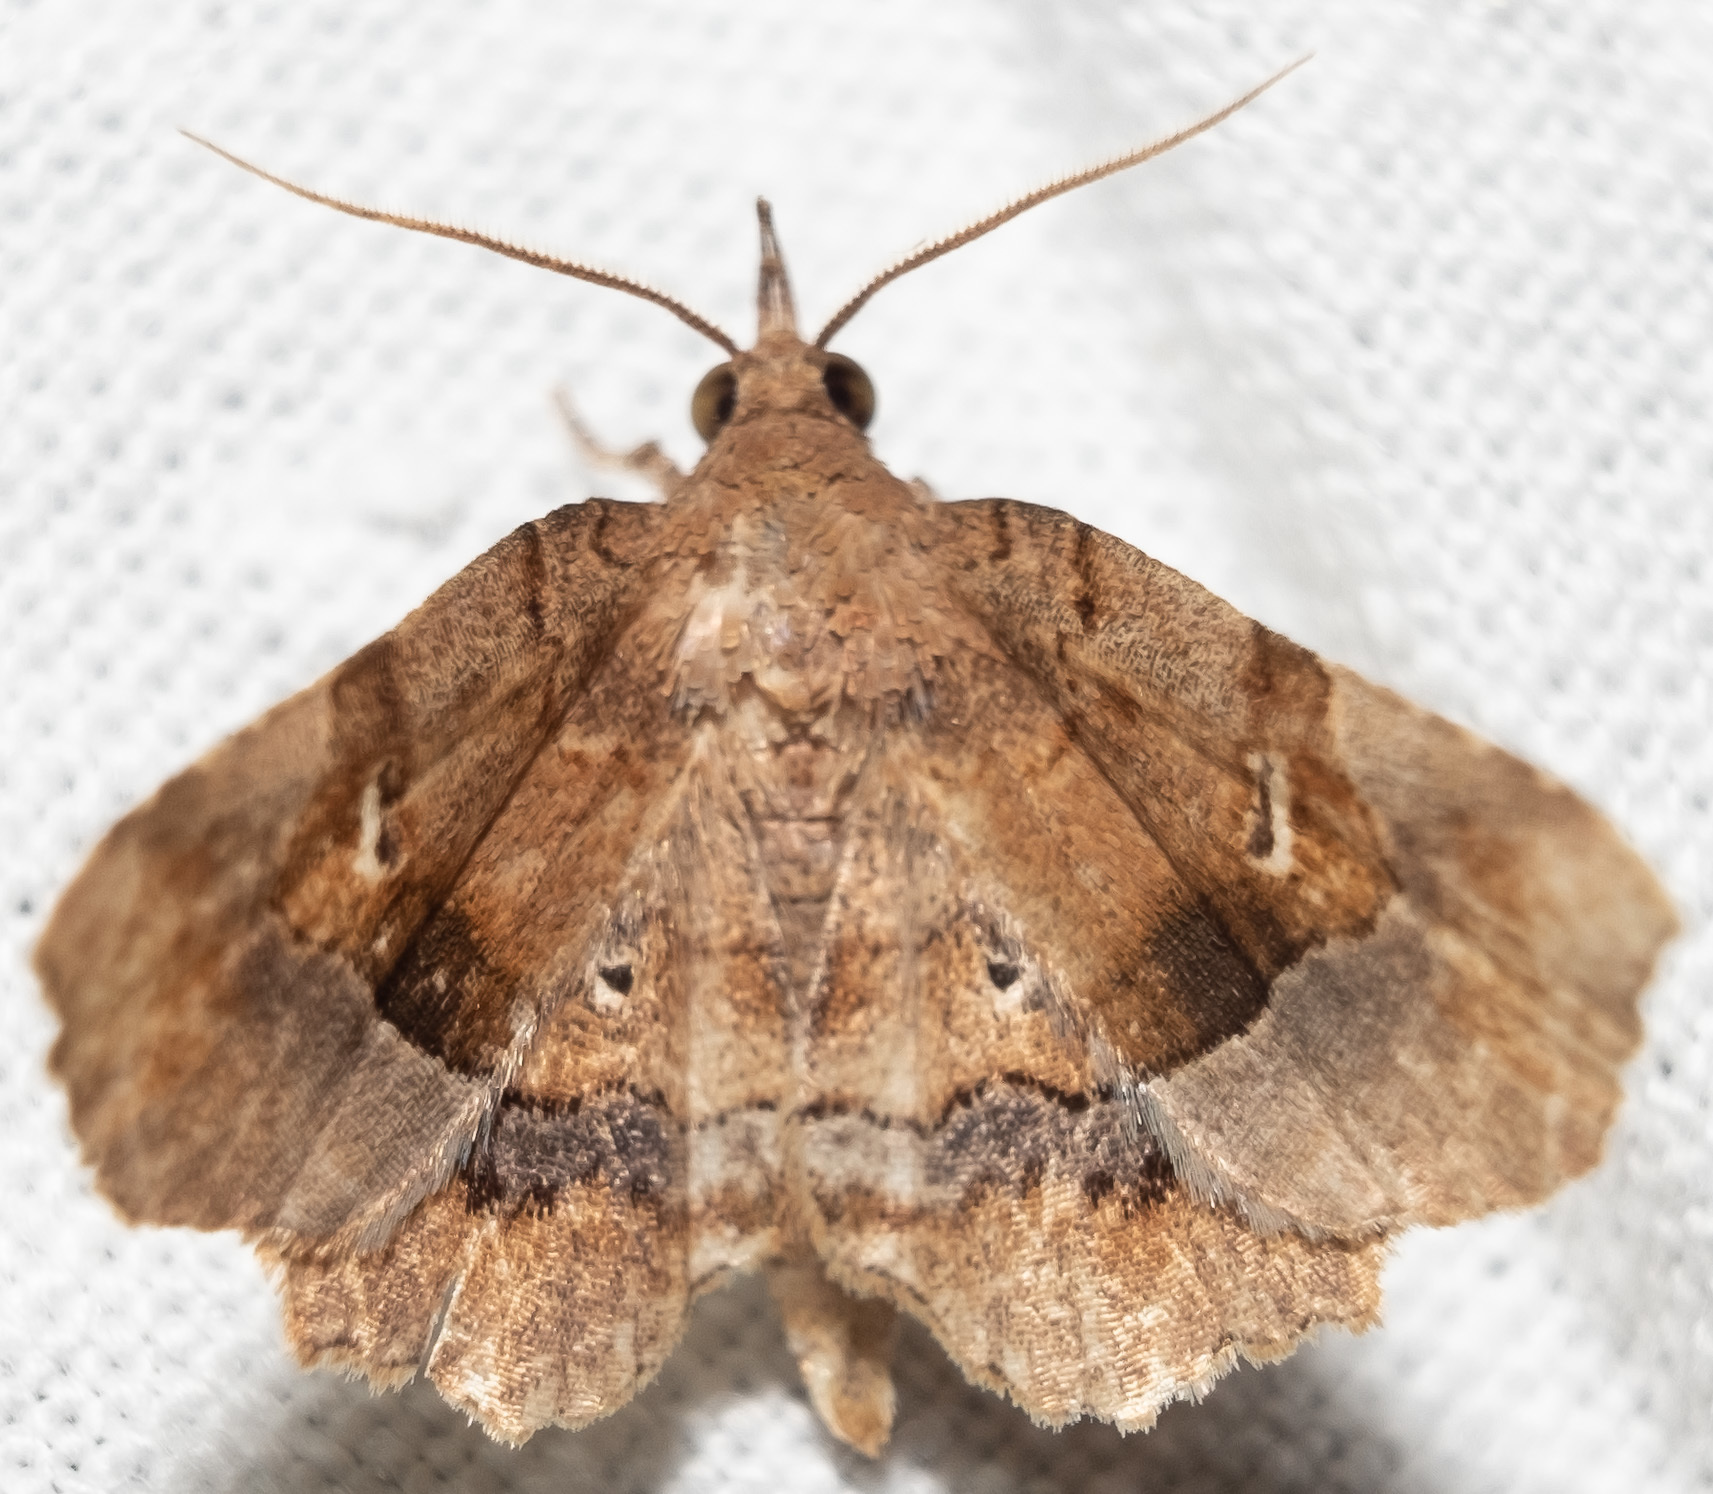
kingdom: Animalia
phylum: Arthropoda
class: Insecta
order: Lepidoptera
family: Erebidae
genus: Pangrapta
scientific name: Pangrapta decoralis
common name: Decorated owlet
